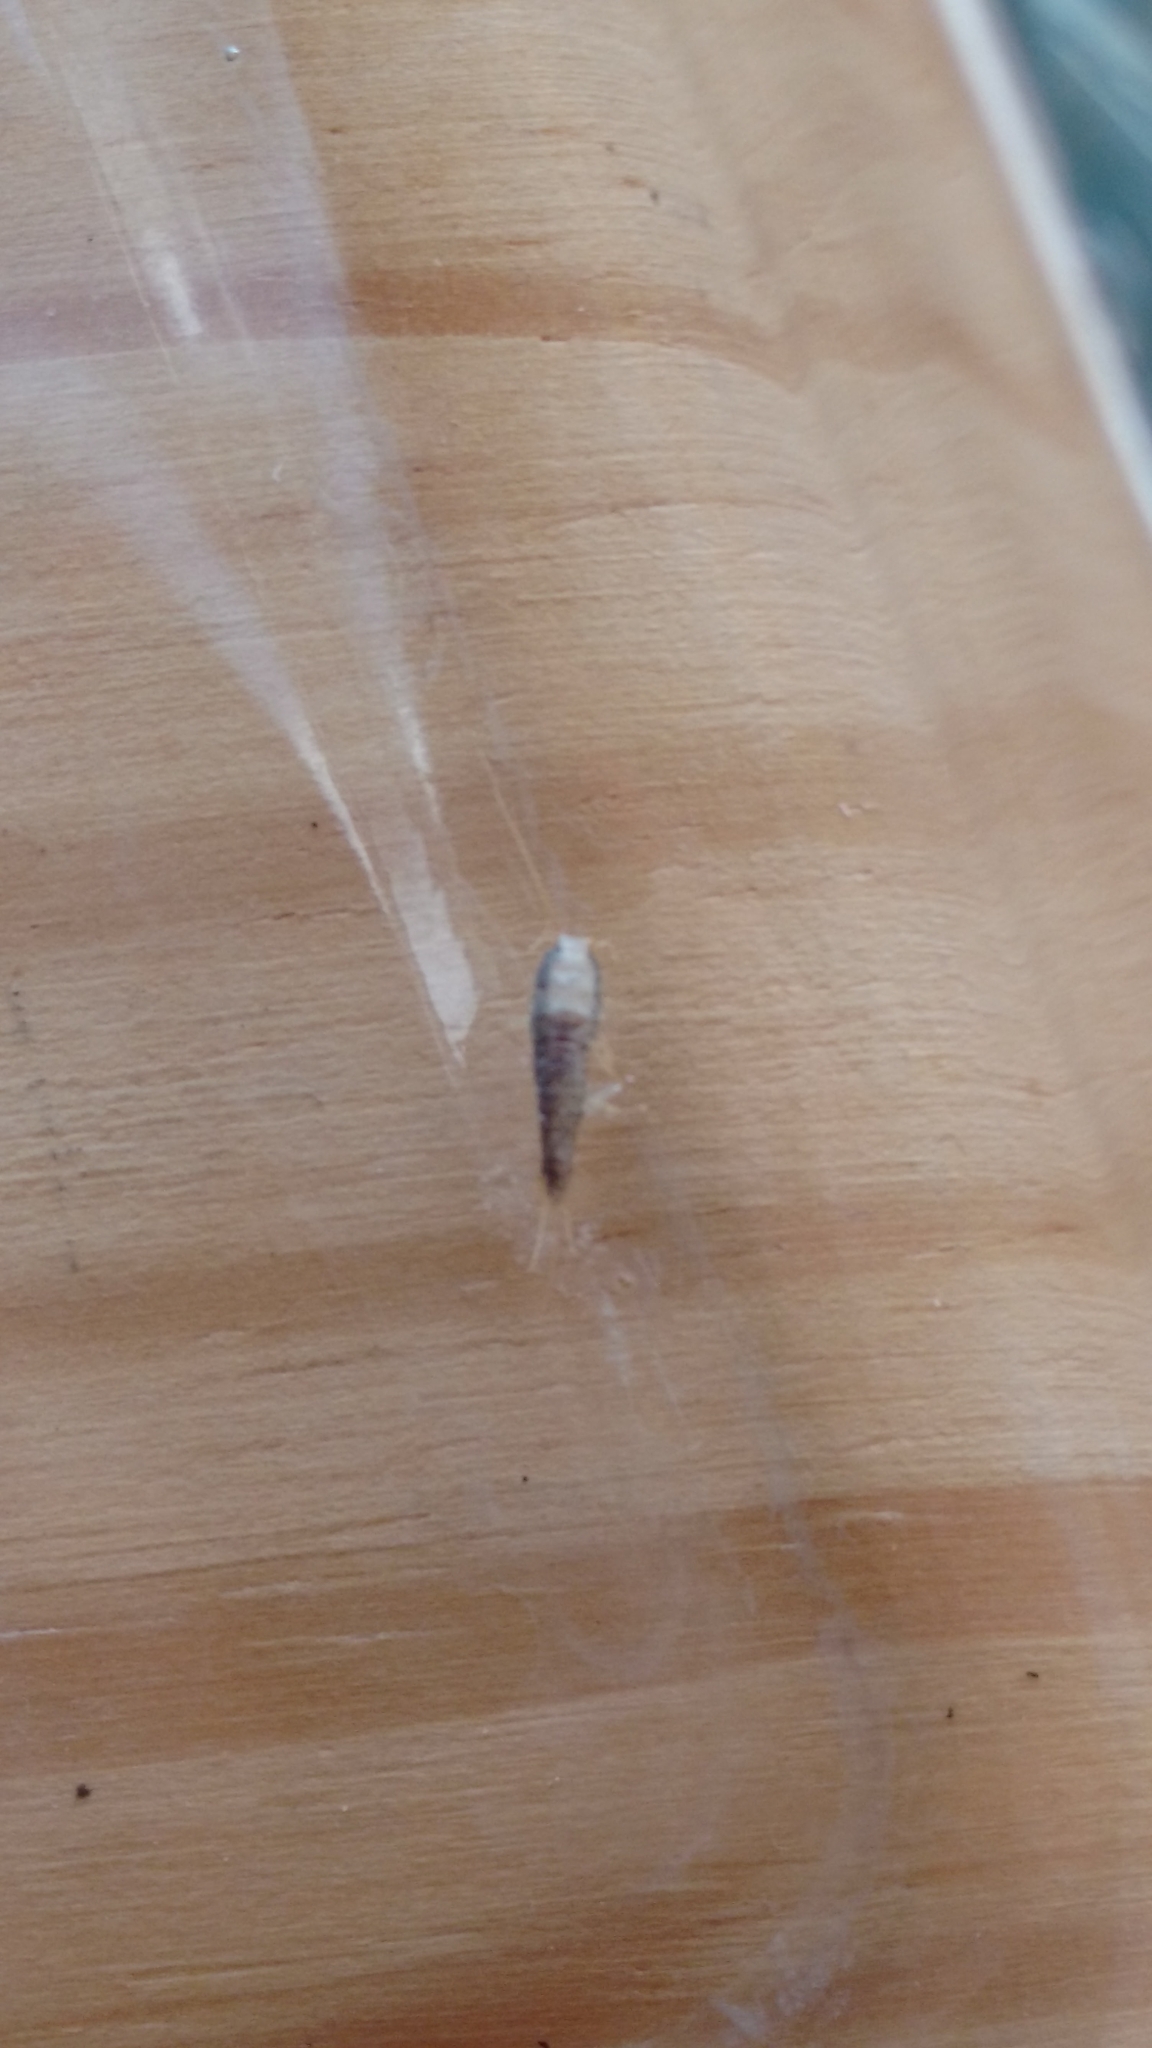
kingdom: Animalia
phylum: Arthropoda
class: Insecta
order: Zygentoma
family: Lepismatidae
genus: Lepisma
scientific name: Lepisma saccharinum
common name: Silverfish
